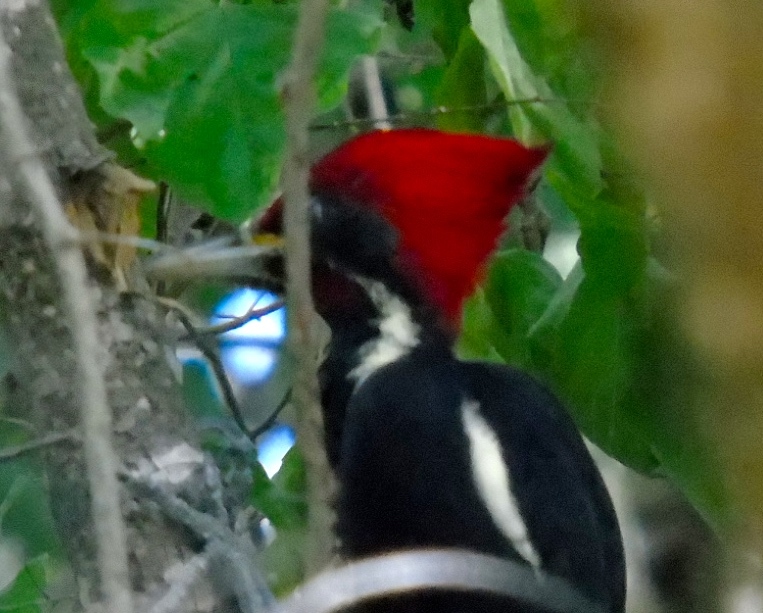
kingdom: Animalia
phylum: Chordata
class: Aves
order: Piciformes
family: Picidae
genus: Dryocopus
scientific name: Dryocopus lineatus
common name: Lineated woodpecker
